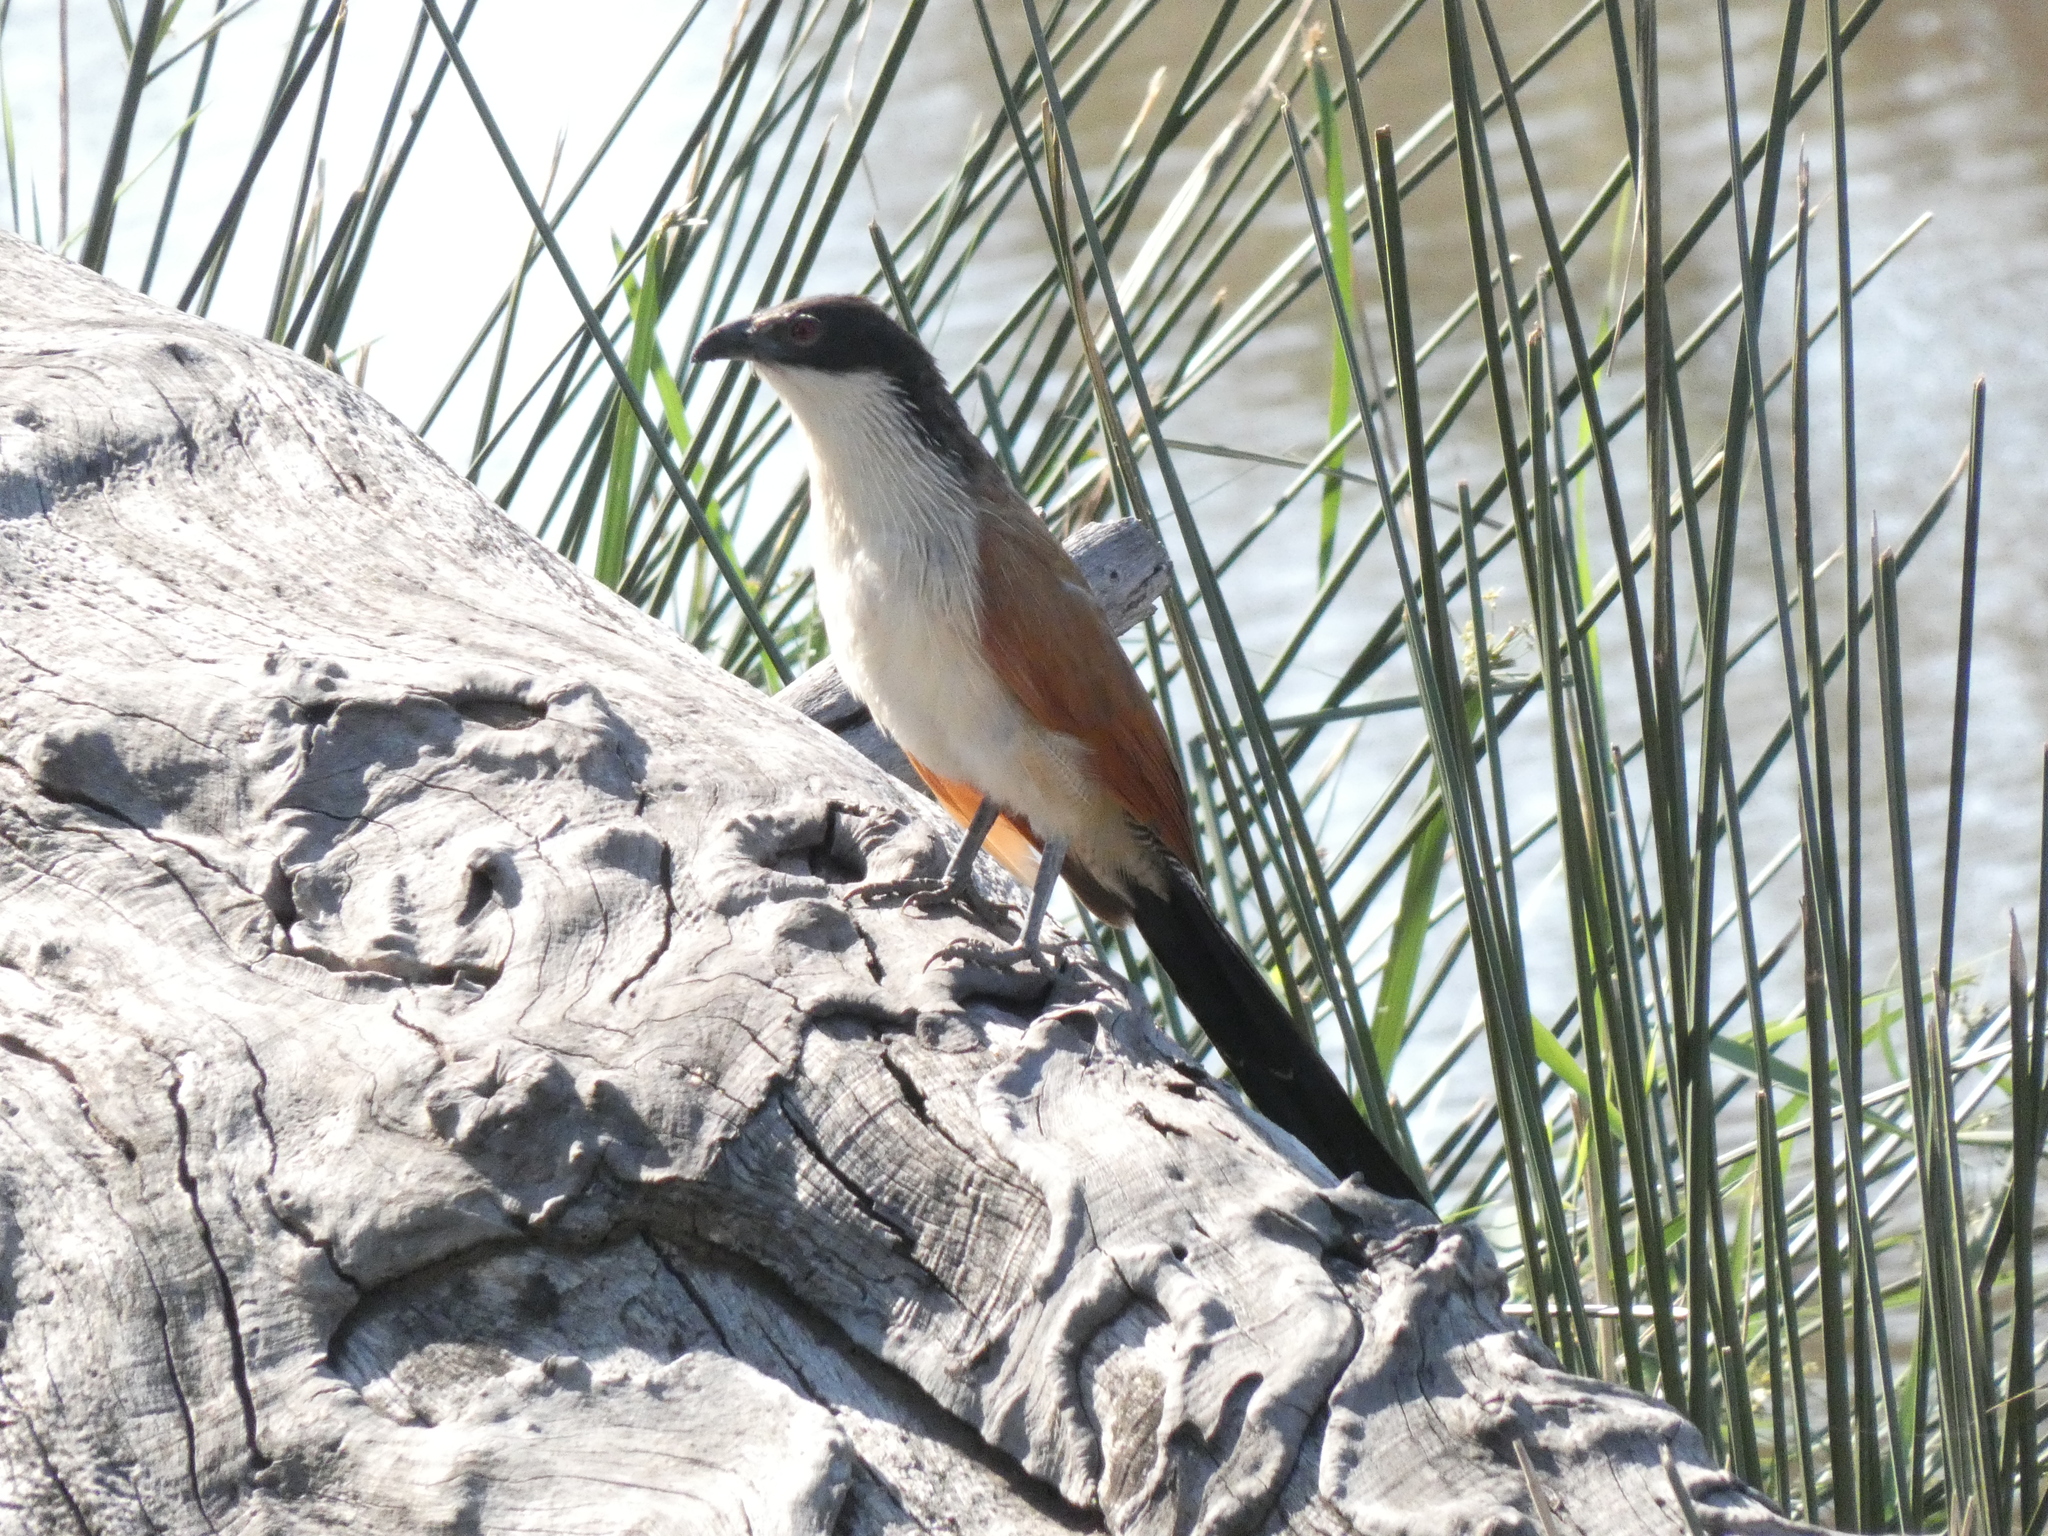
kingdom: Animalia
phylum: Chordata
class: Aves
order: Cuculiformes
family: Cuculidae
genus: Centropus
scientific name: Centropus superciliosus
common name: White-browed coucal
